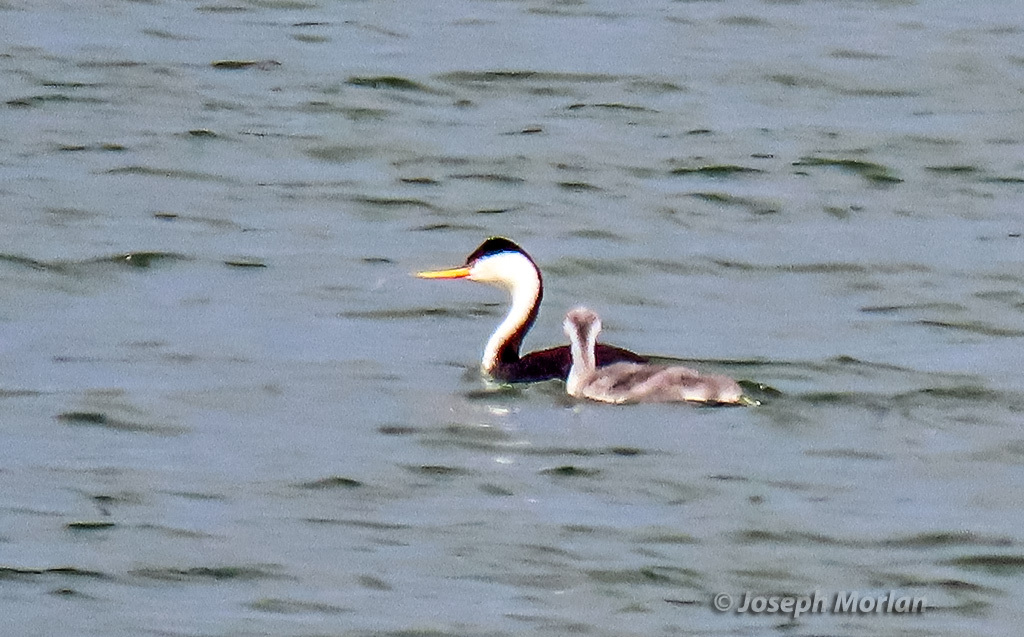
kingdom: Animalia
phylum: Chordata
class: Aves
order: Podicipediformes
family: Podicipedidae
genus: Aechmophorus
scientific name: Aechmophorus clarkii
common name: Clark's grebe
